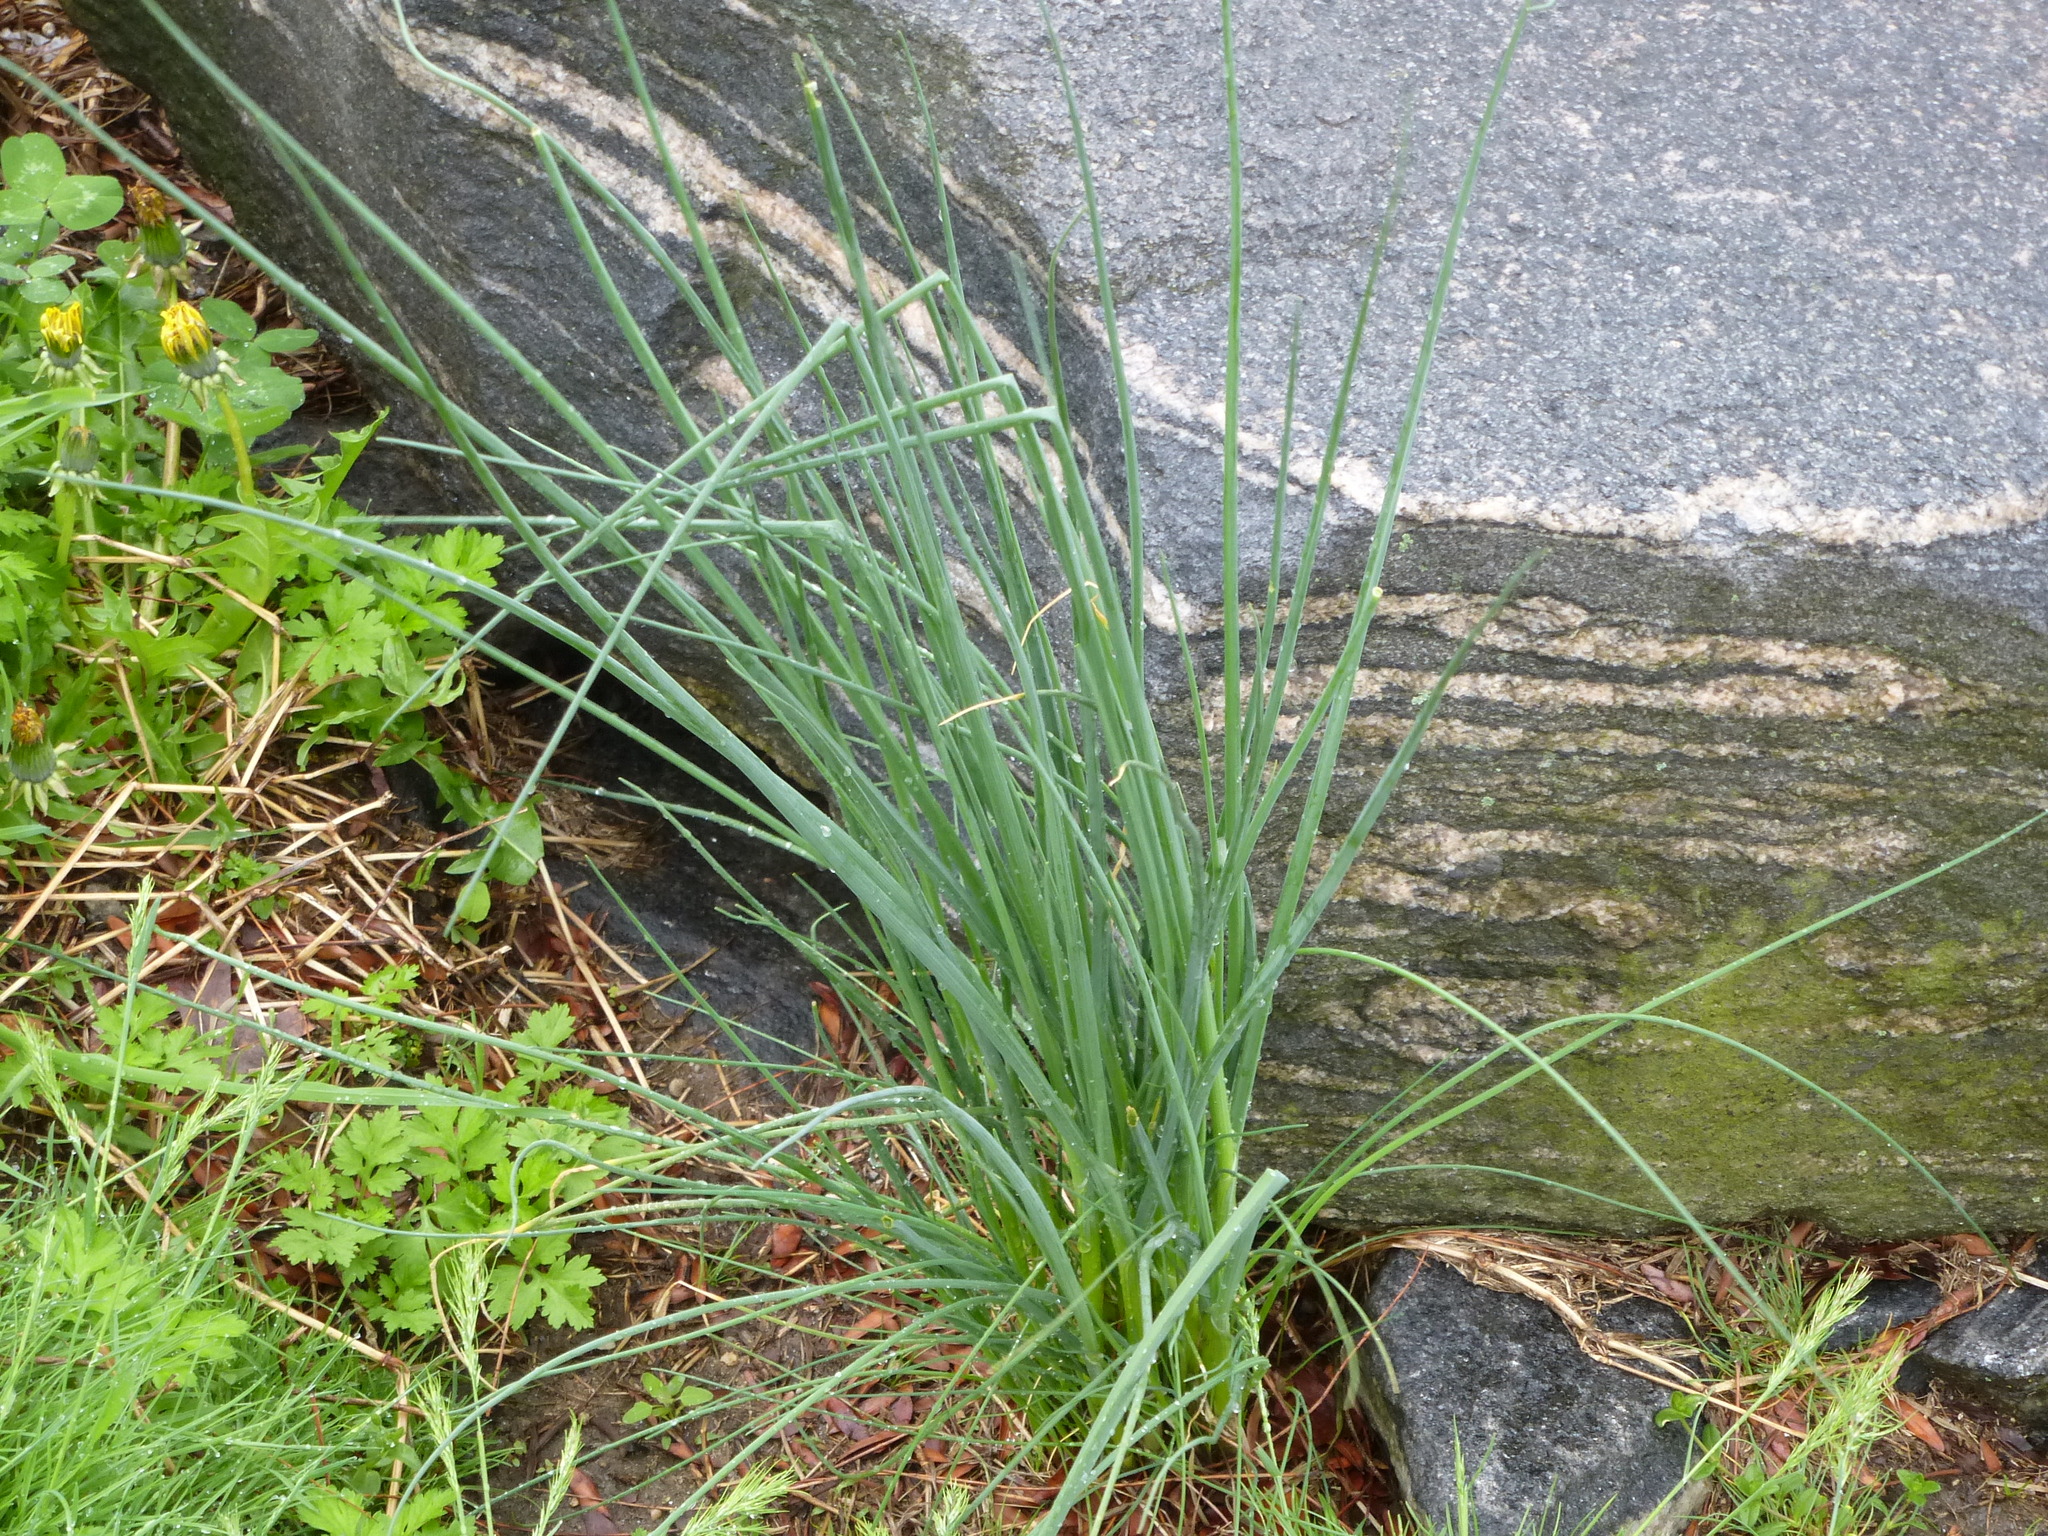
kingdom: Plantae
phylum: Tracheophyta
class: Liliopsida
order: Asparagales
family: Amaryllidaceae
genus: Allium
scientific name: Allium vineale
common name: Crow garlic
